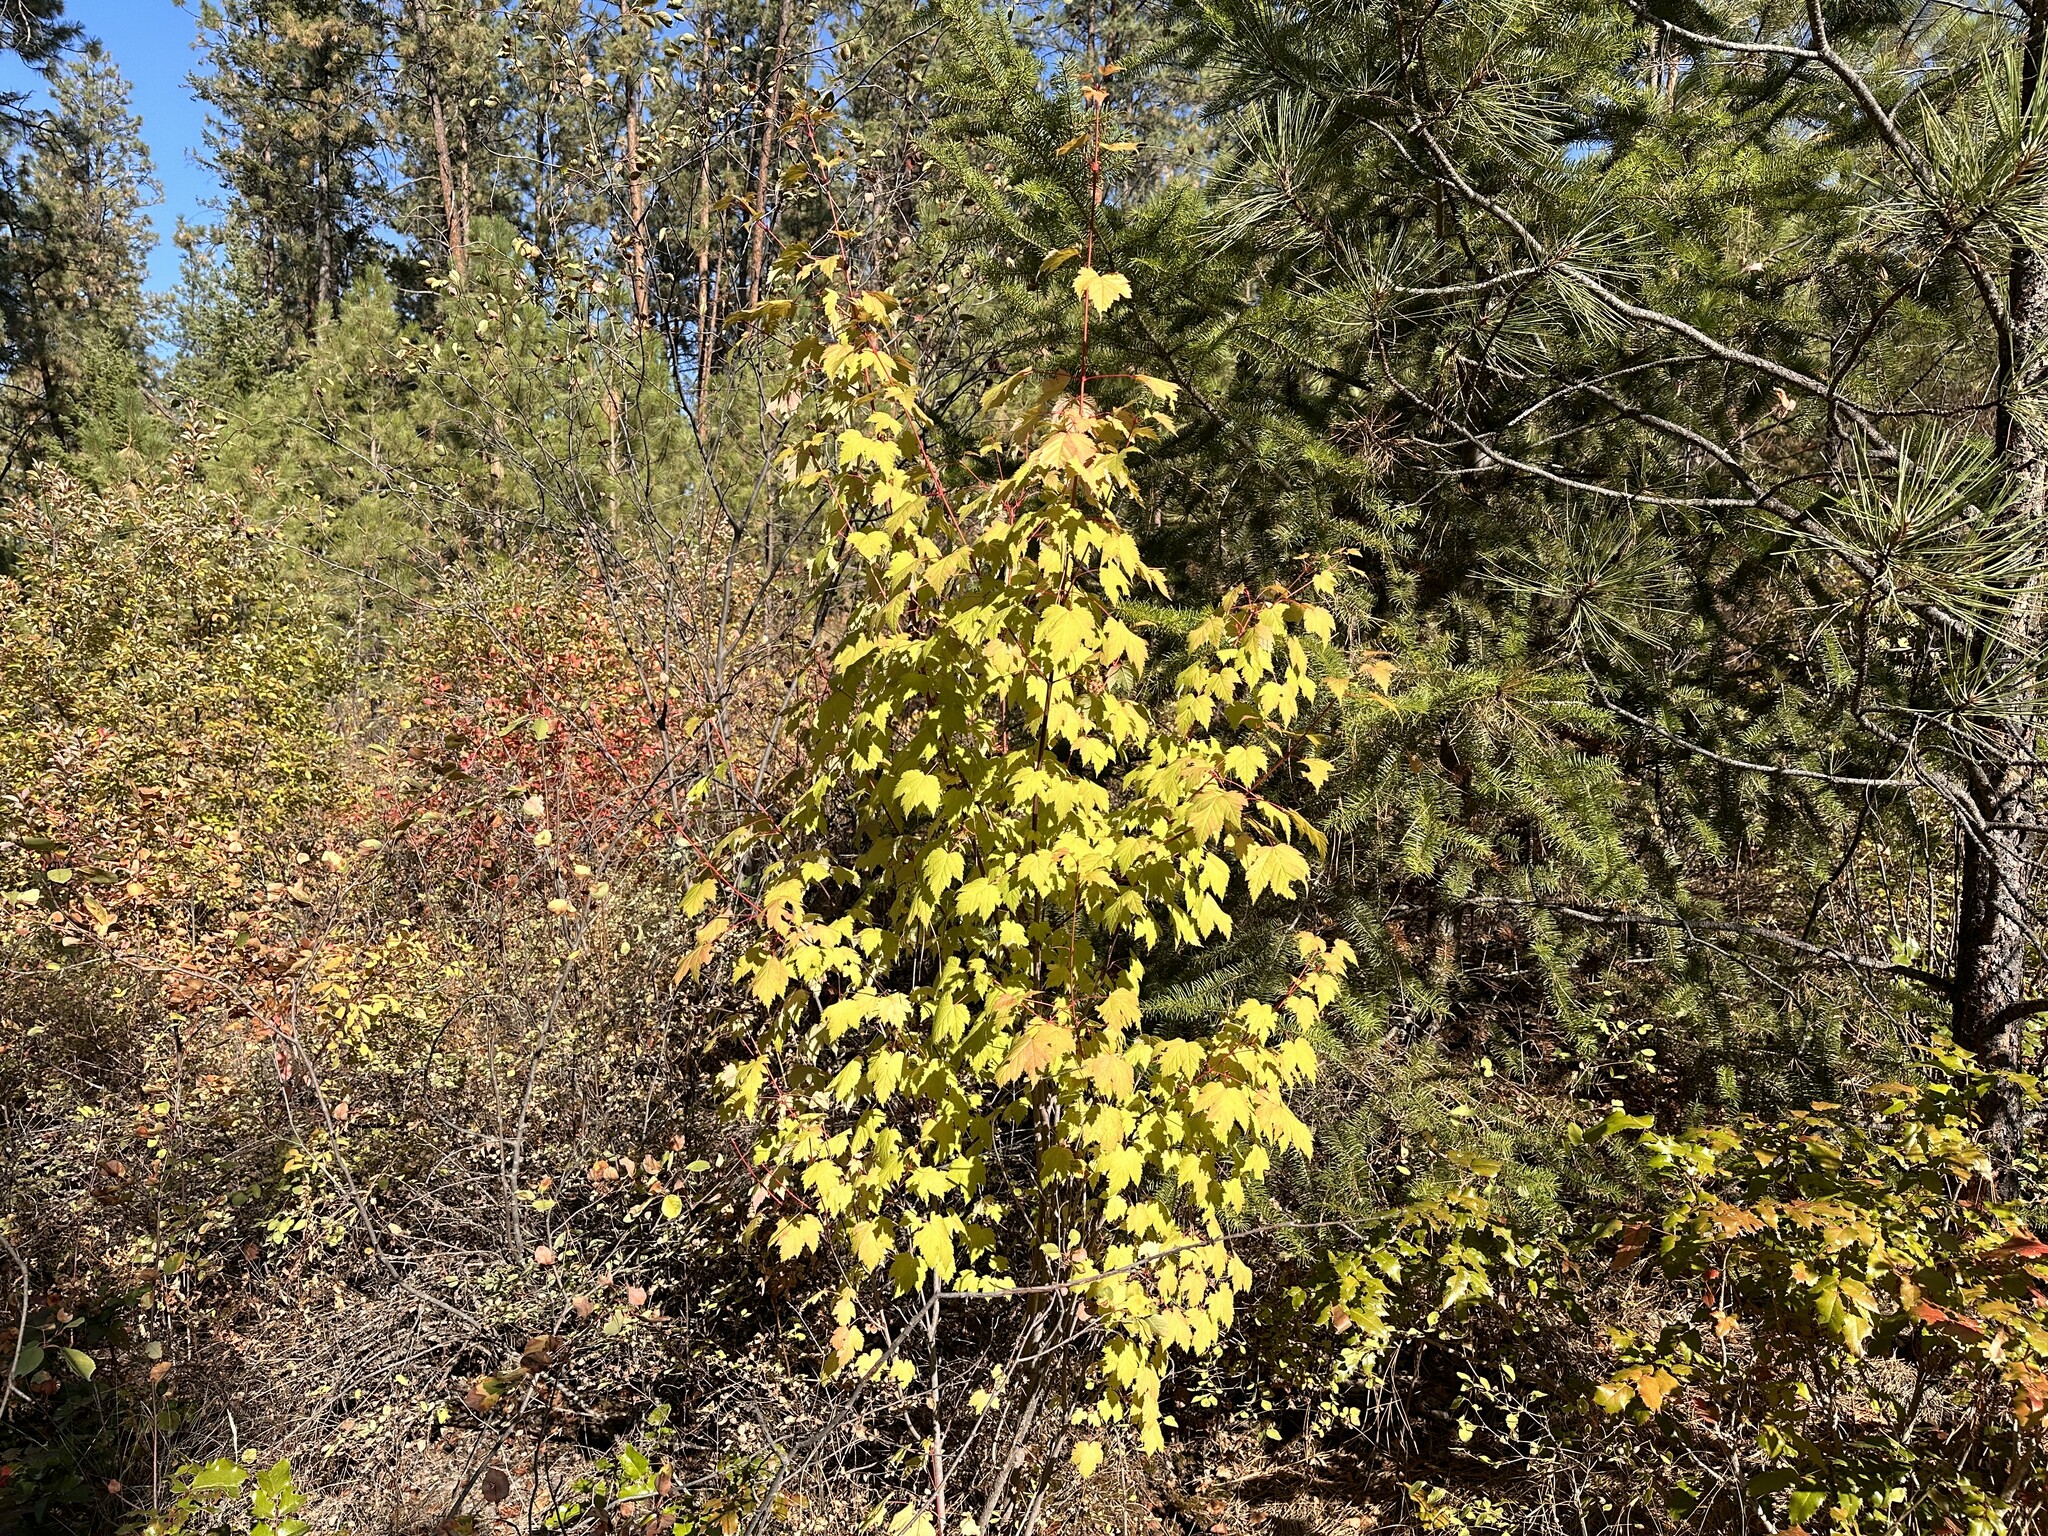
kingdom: Plantae
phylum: Tracheophyta
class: Magnoliopsida
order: Sapindales
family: Sapindaceae
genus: Acer
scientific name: Acer glabrum
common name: Rocky mountain maple
